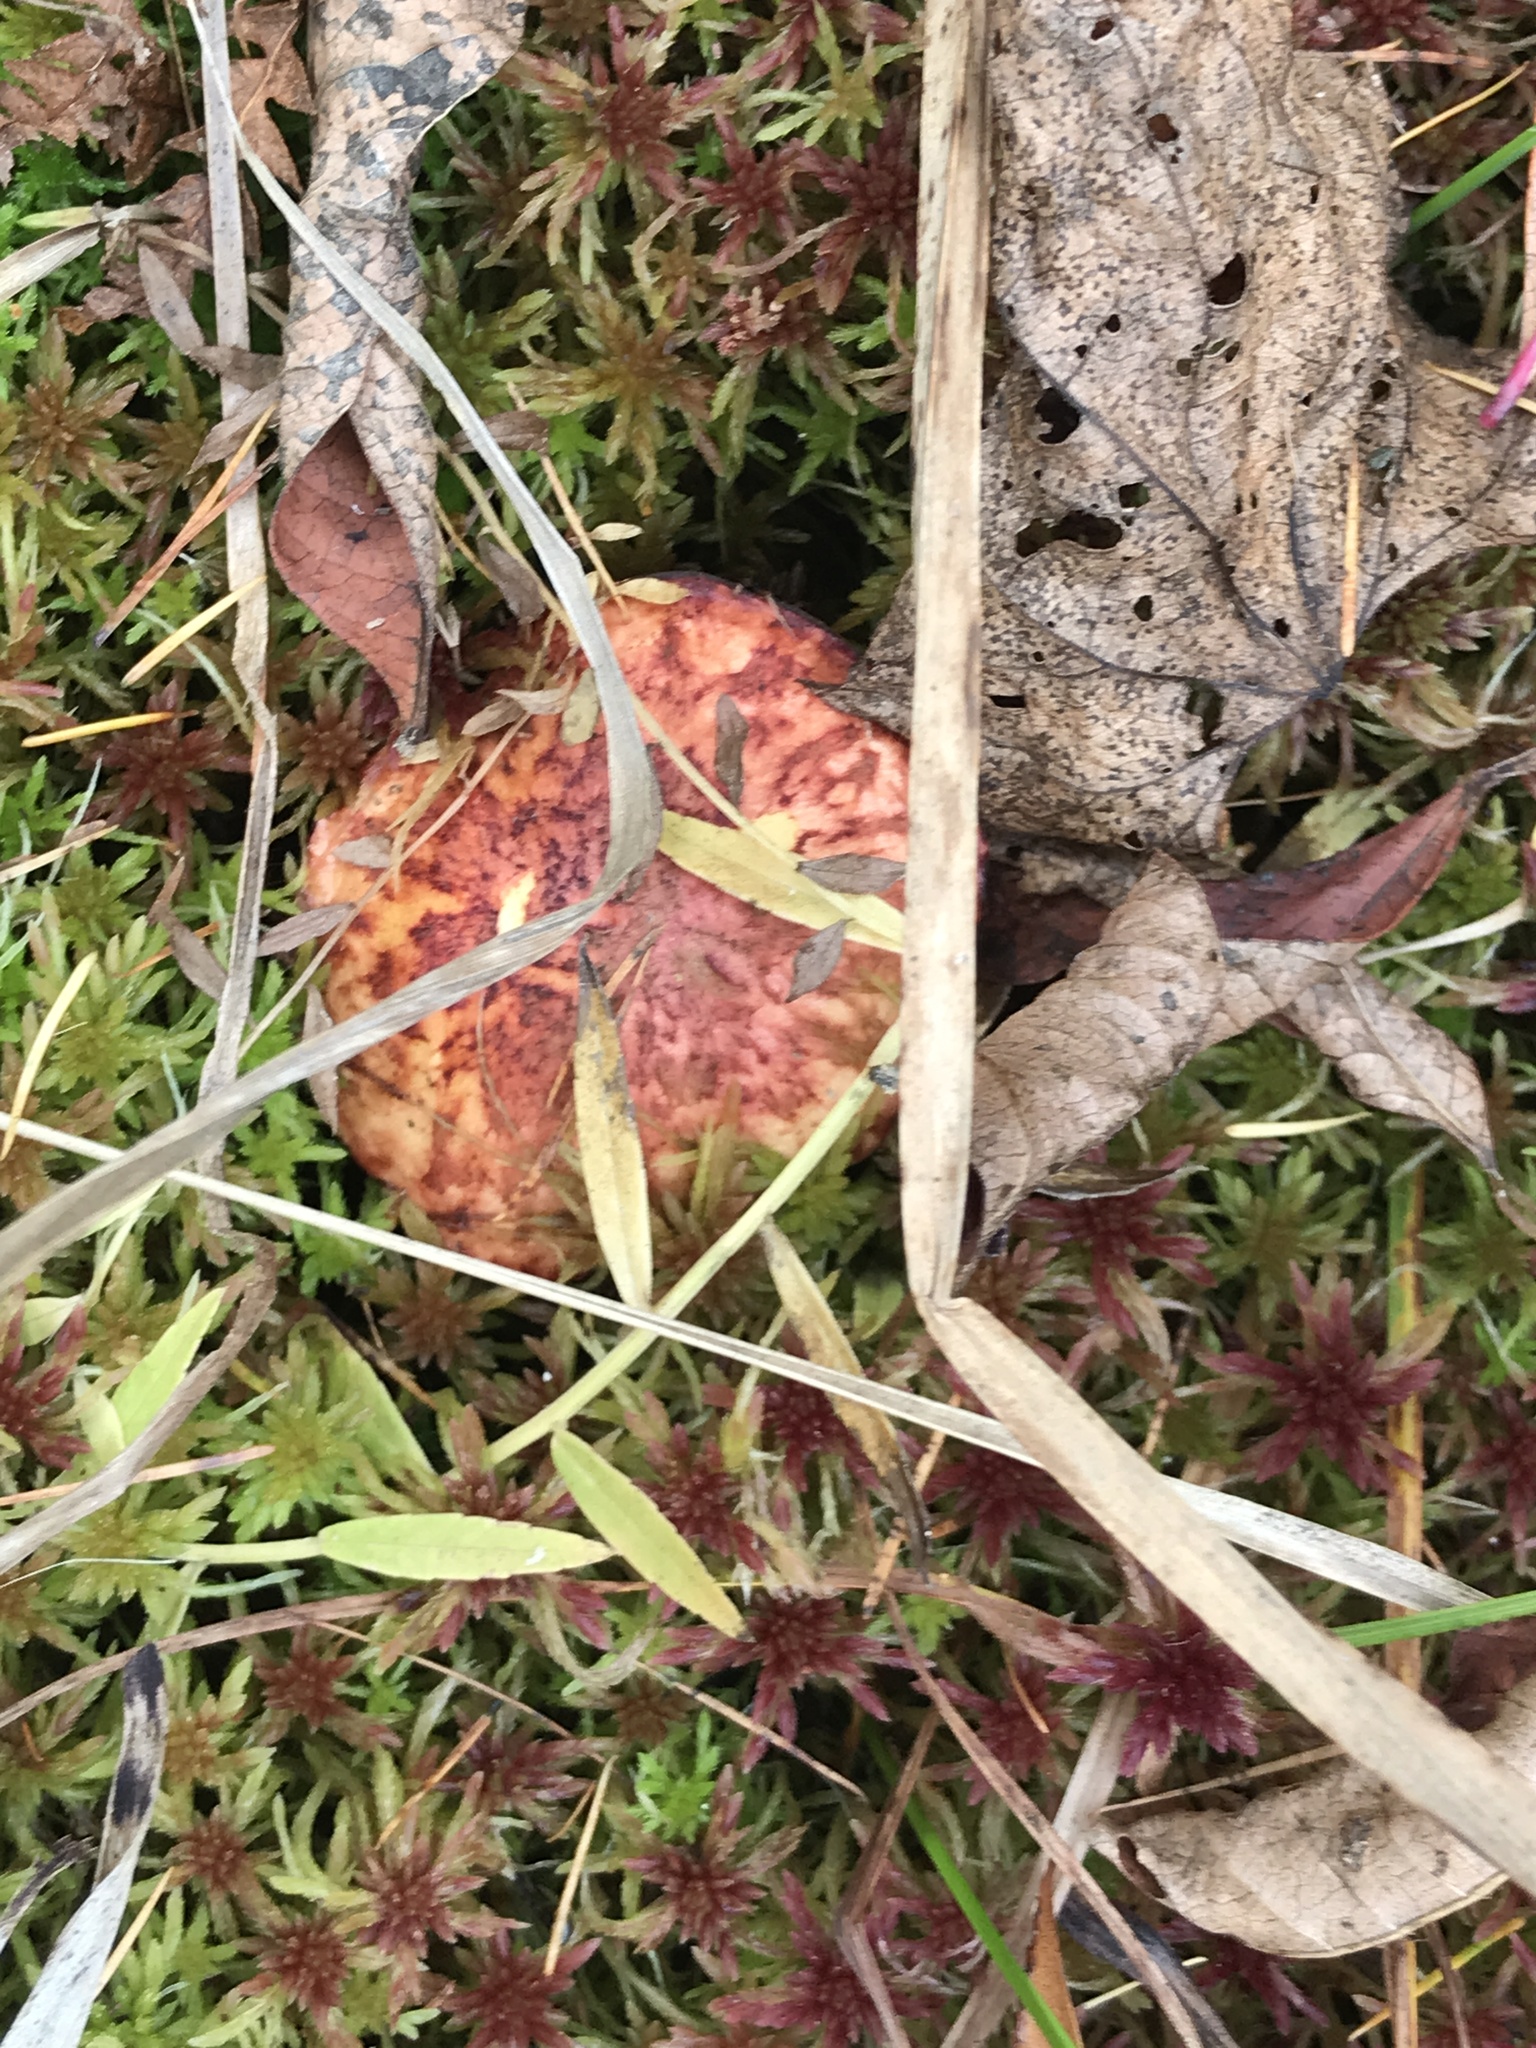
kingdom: Fungi
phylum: Basidiomycota
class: Agaricomycetes
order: Boletales
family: Suillaceae
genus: Boletinus
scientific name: Boletinus spectabilis
